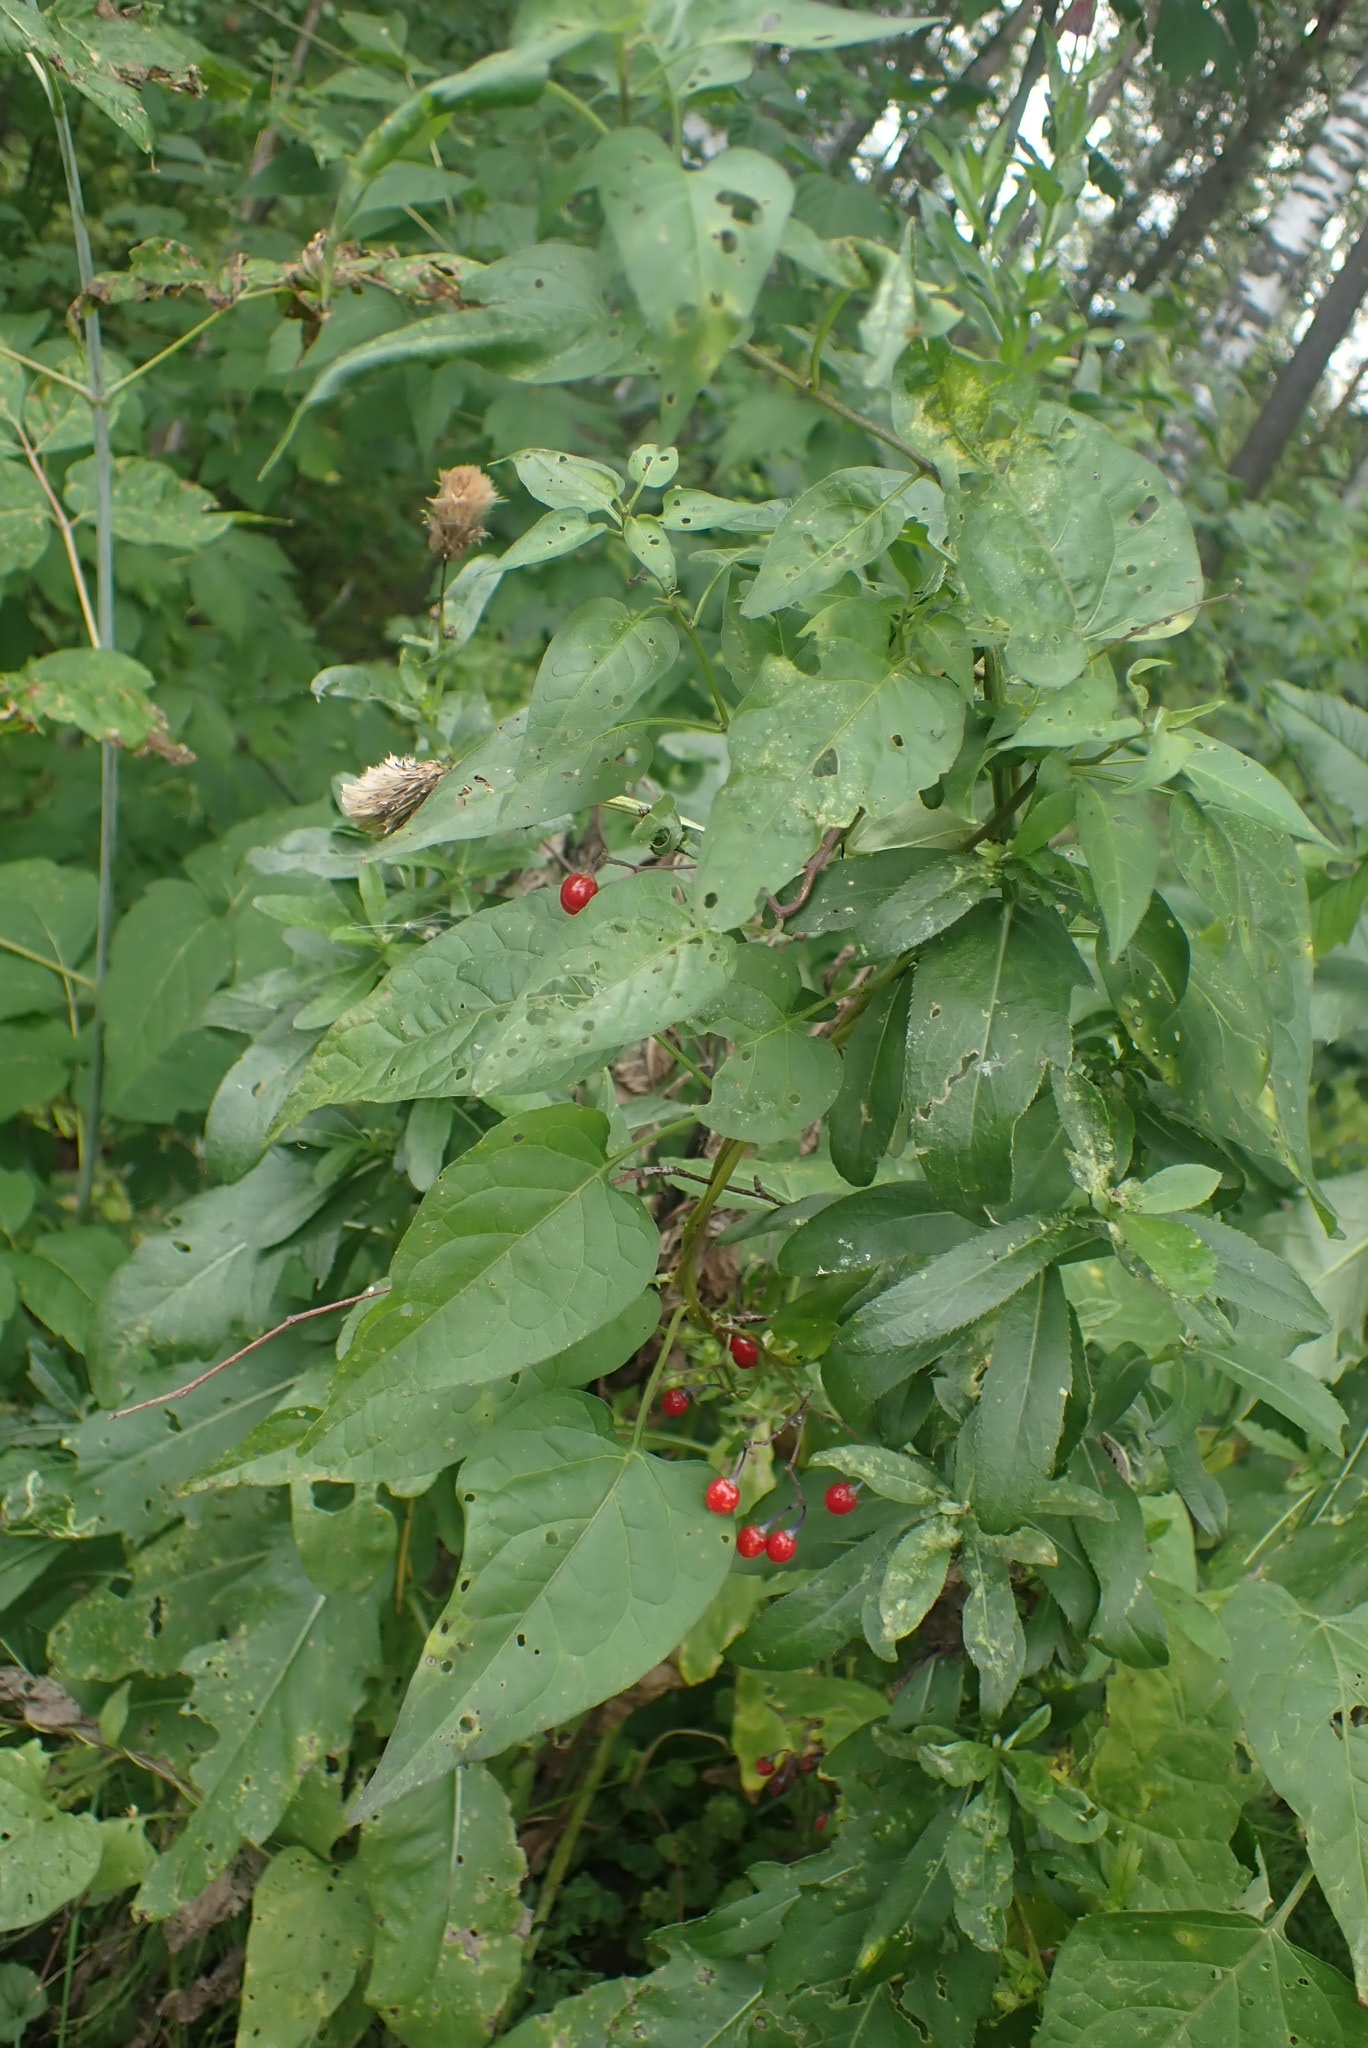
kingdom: Plantae
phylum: Tracheophyta
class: Magnoliopsida
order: Solanales
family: Solanaceae
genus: Solanum
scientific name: Solanum dulcamara
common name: Climbing nightshade
